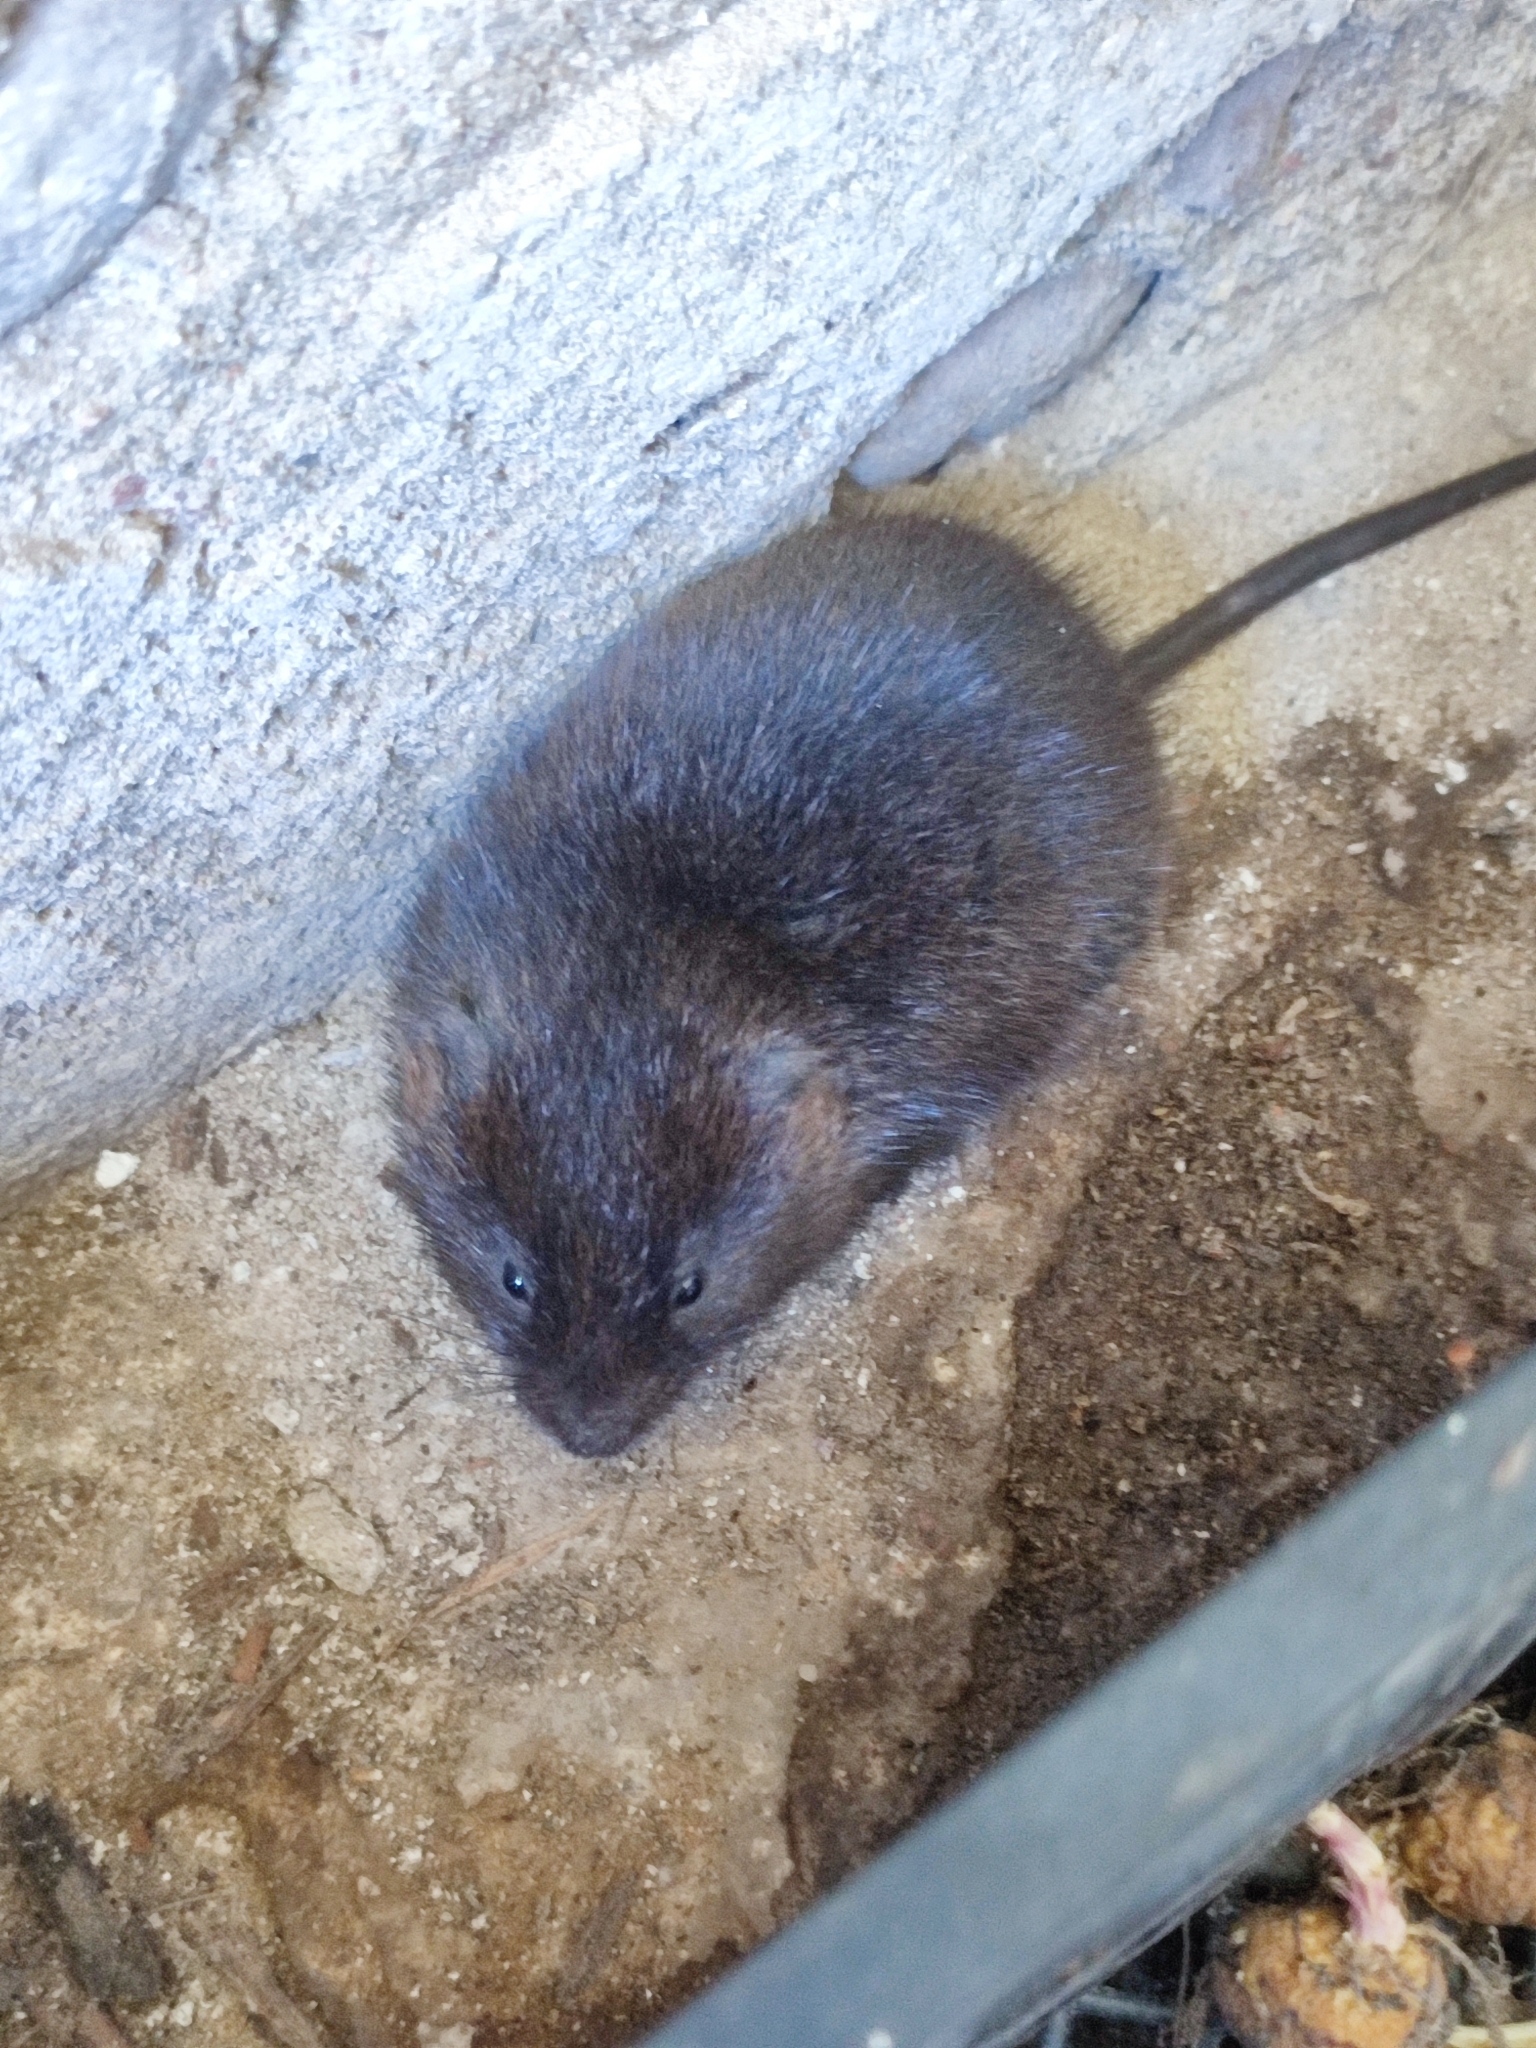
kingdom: Animalia
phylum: Chordata
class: Mammalia
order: Rodentia
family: Cricetidae
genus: Arvicola
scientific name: Arvicola amphibius
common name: European water vole
